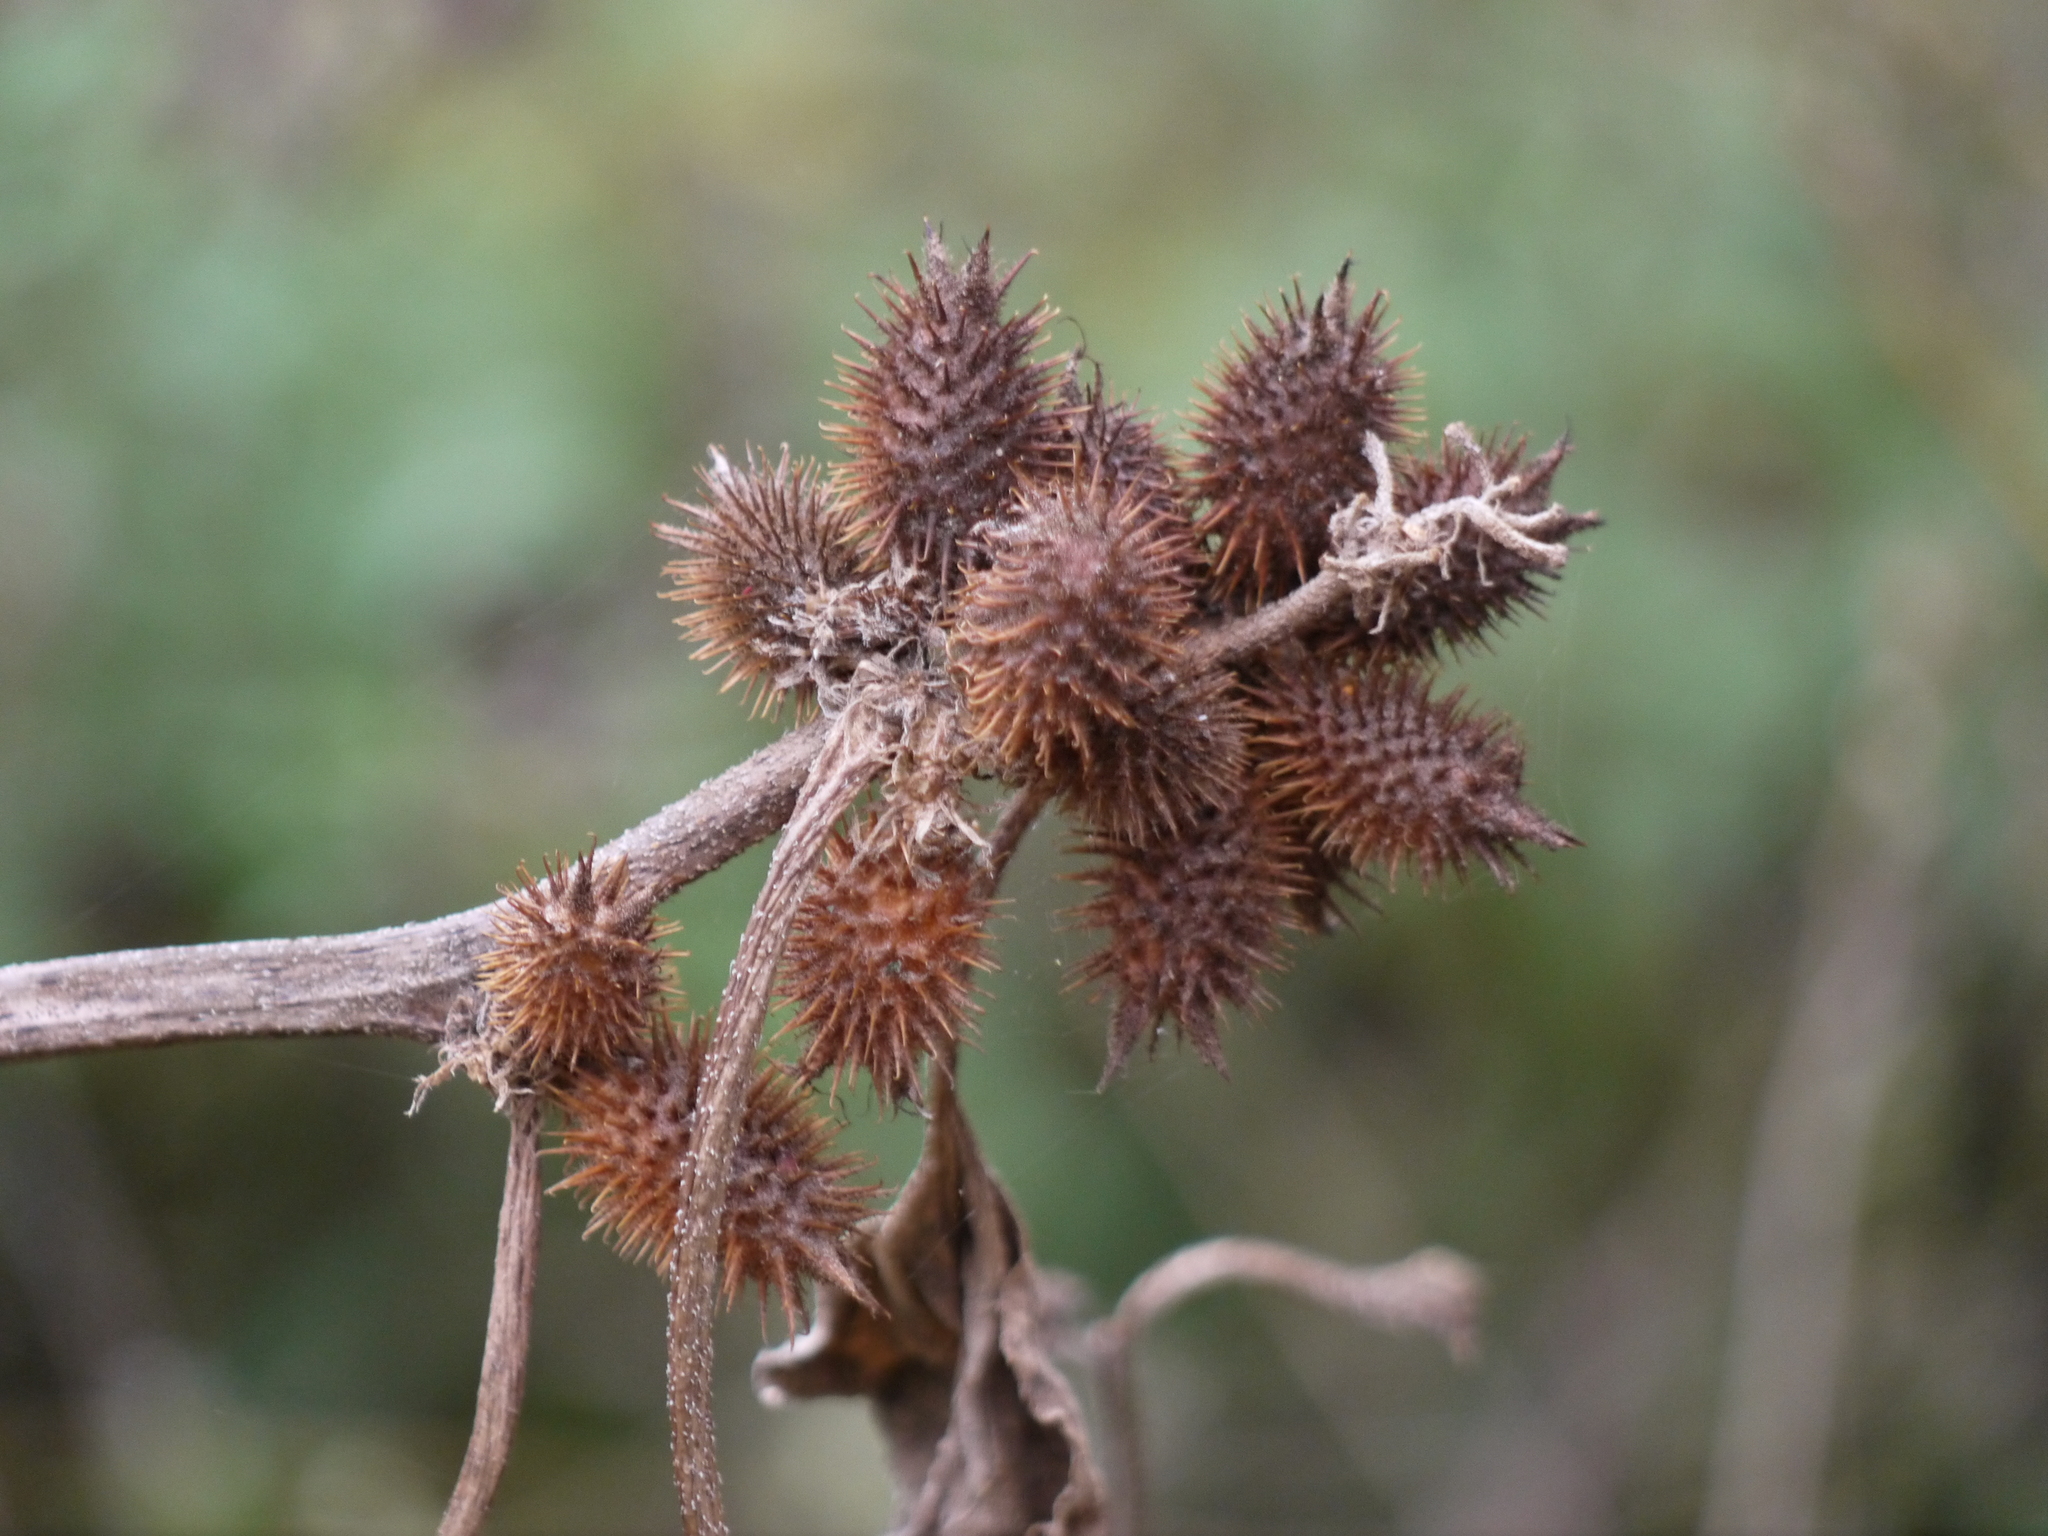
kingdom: Plantae
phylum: Tracheophyta
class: Magnoliopsida
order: Asterales
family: Asteraceae
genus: Xanthium
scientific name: Xanthium orientale
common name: Californian burr
